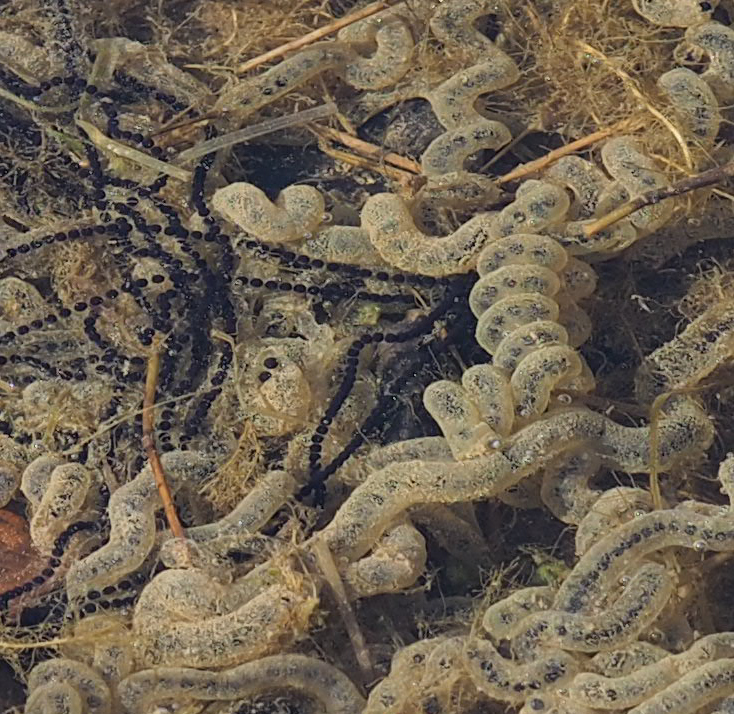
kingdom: Animalia
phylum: Chordata
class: Amphibia
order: Anura
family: Bufonidae
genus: Anaxyrus
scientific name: Anaxyrus americanus
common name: American toad
